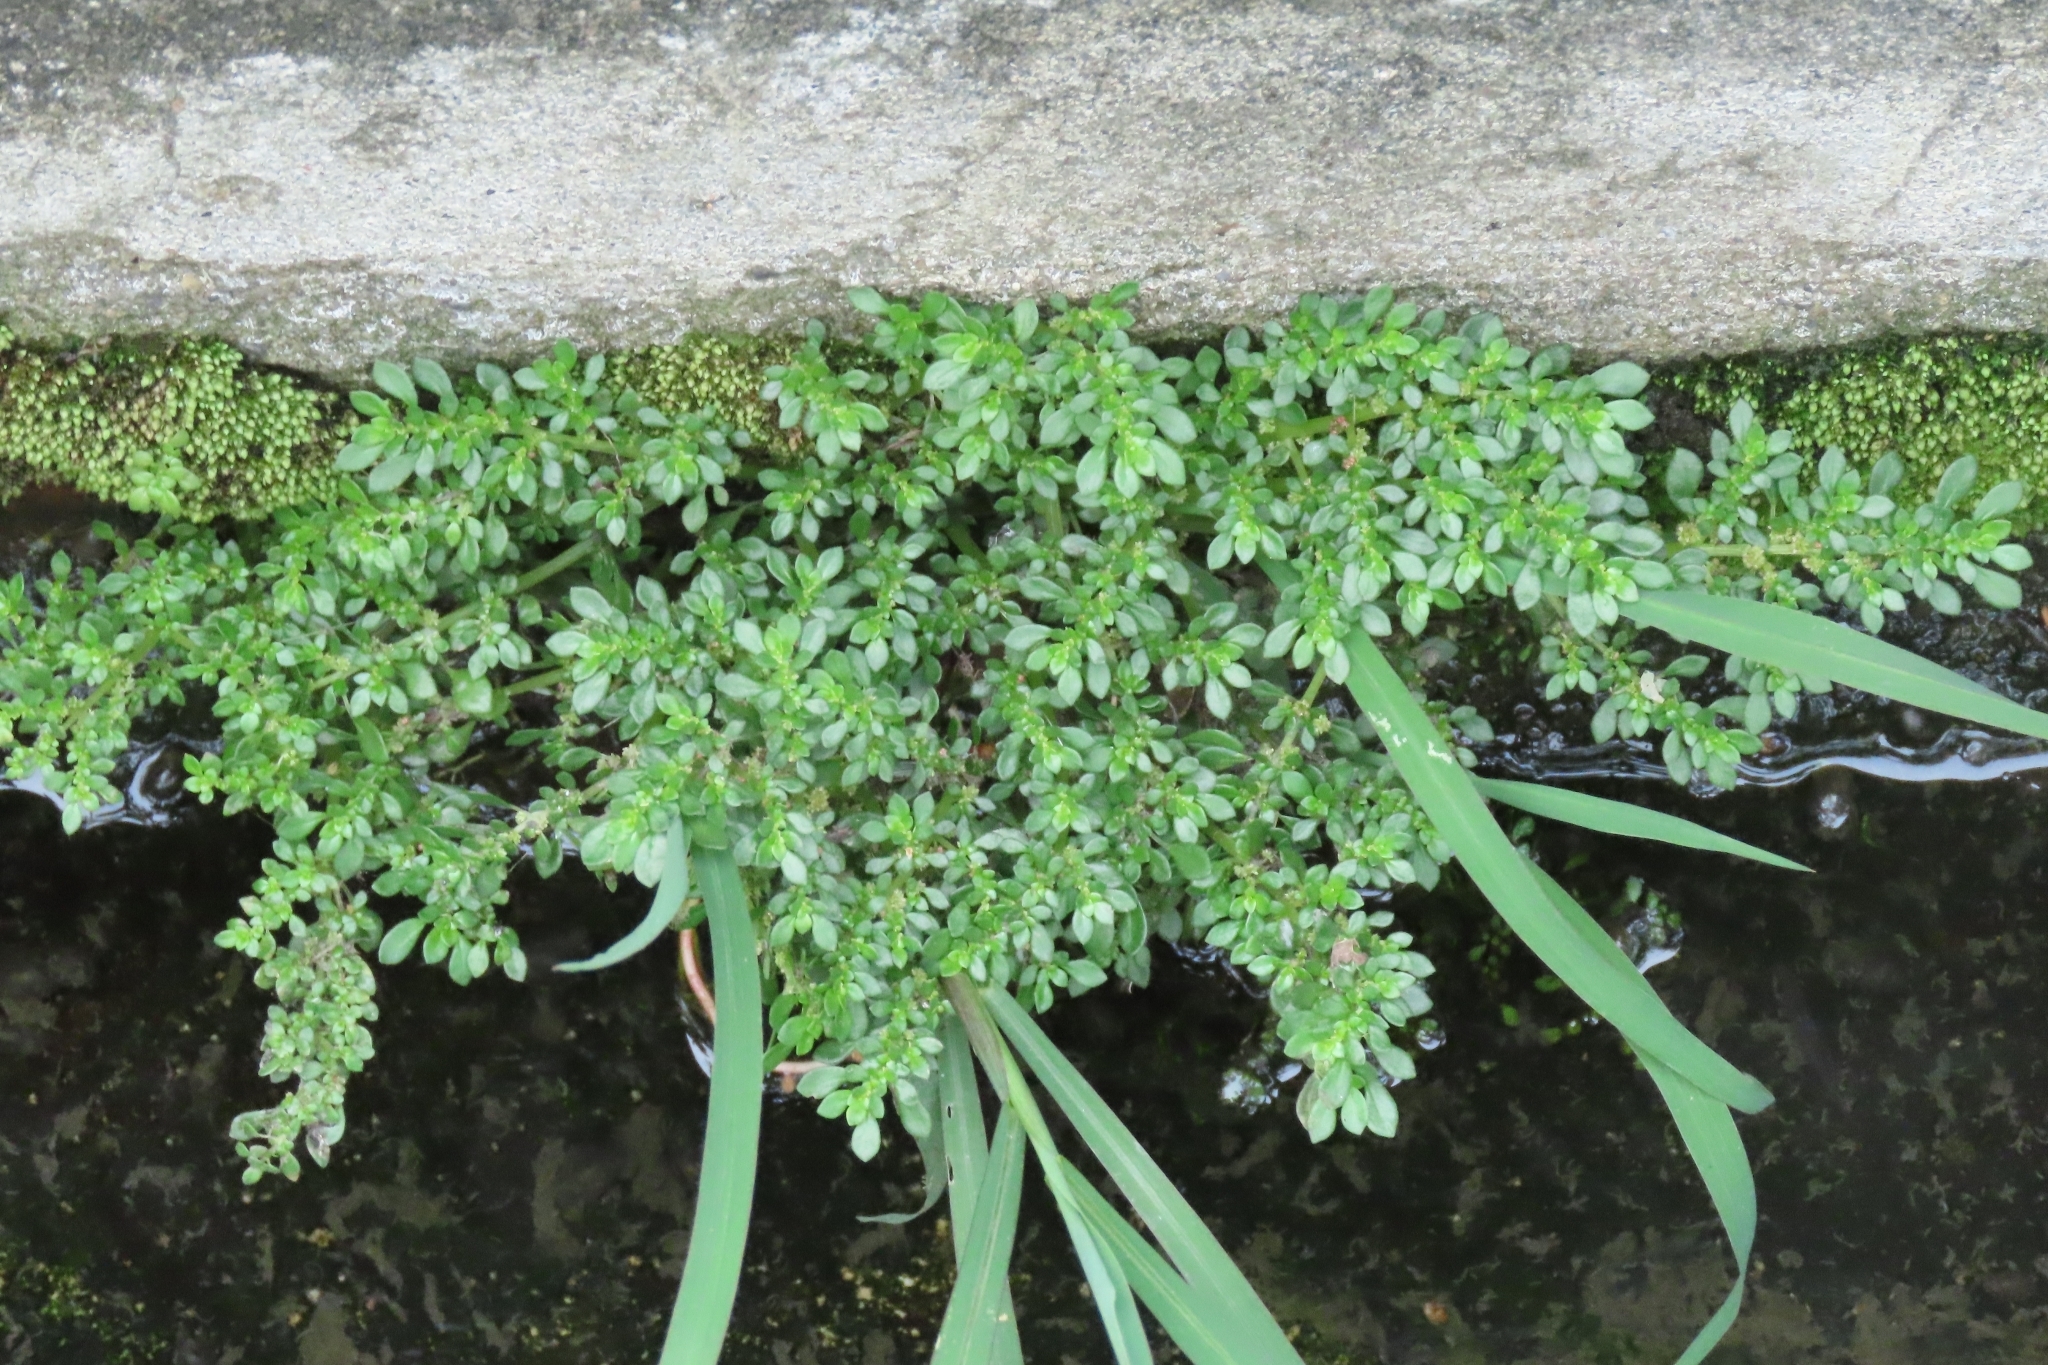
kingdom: Plantae
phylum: Tracheophyta
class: Magnoliopsida
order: Rosales
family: Urticaceae
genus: Pilea
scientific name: Pilea microphylla
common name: Artillery-plant
